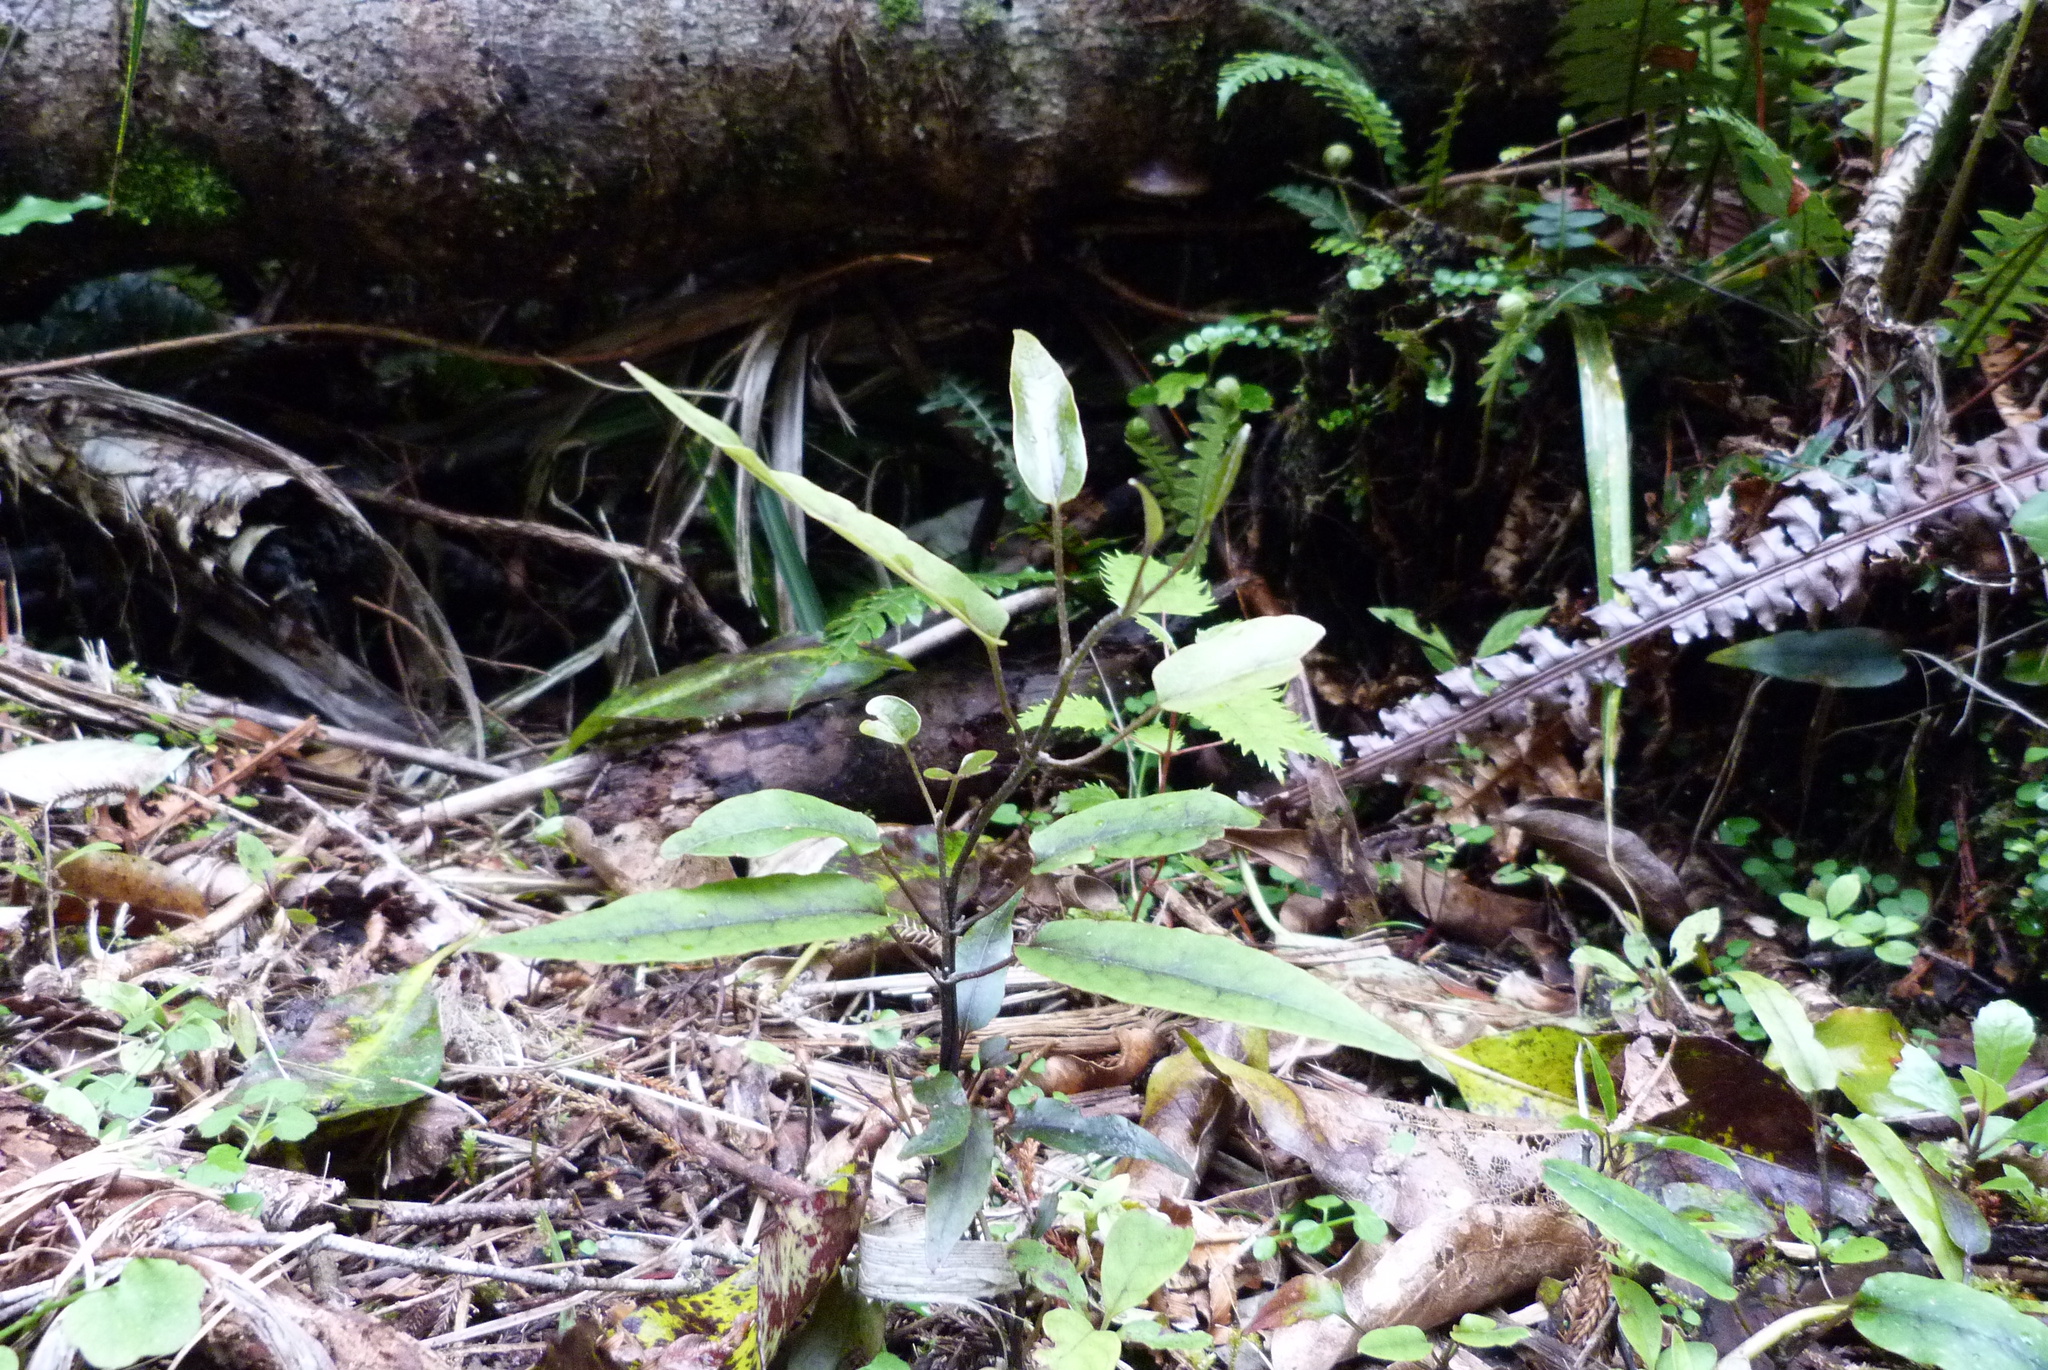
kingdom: Plantae
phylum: Tracheophyta
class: Magnoliopsida
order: Ranunculales
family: Ranunculaceae
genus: Clematis
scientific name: Clematis paniculata
